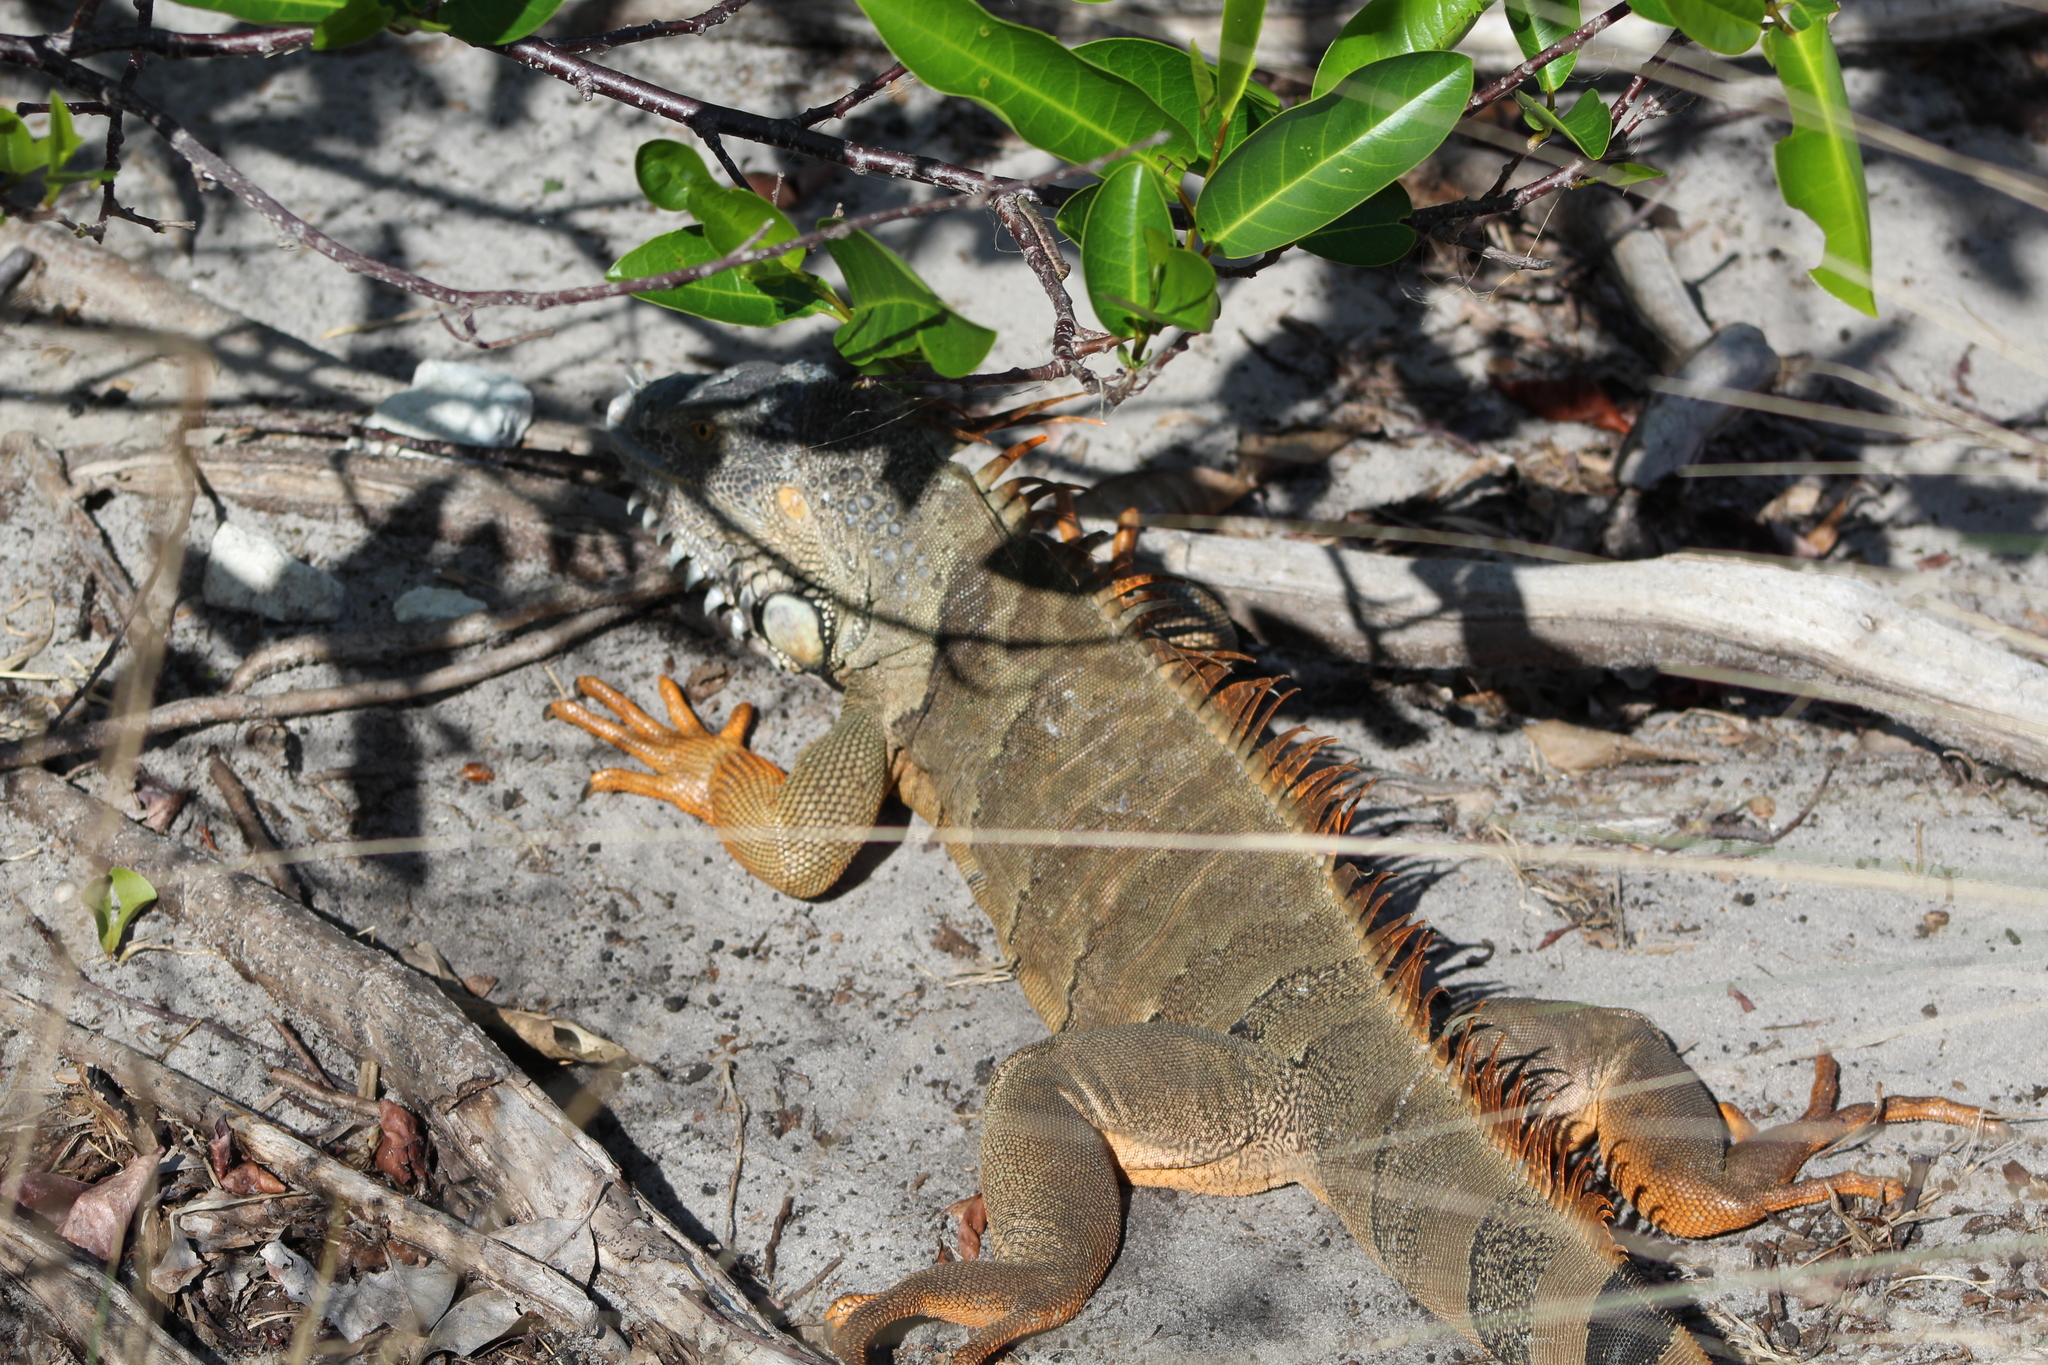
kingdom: Animalia
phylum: Chordata
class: Squamata
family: Iguanidae
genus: Iguana
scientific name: Iguana iguana
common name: Green iguana
